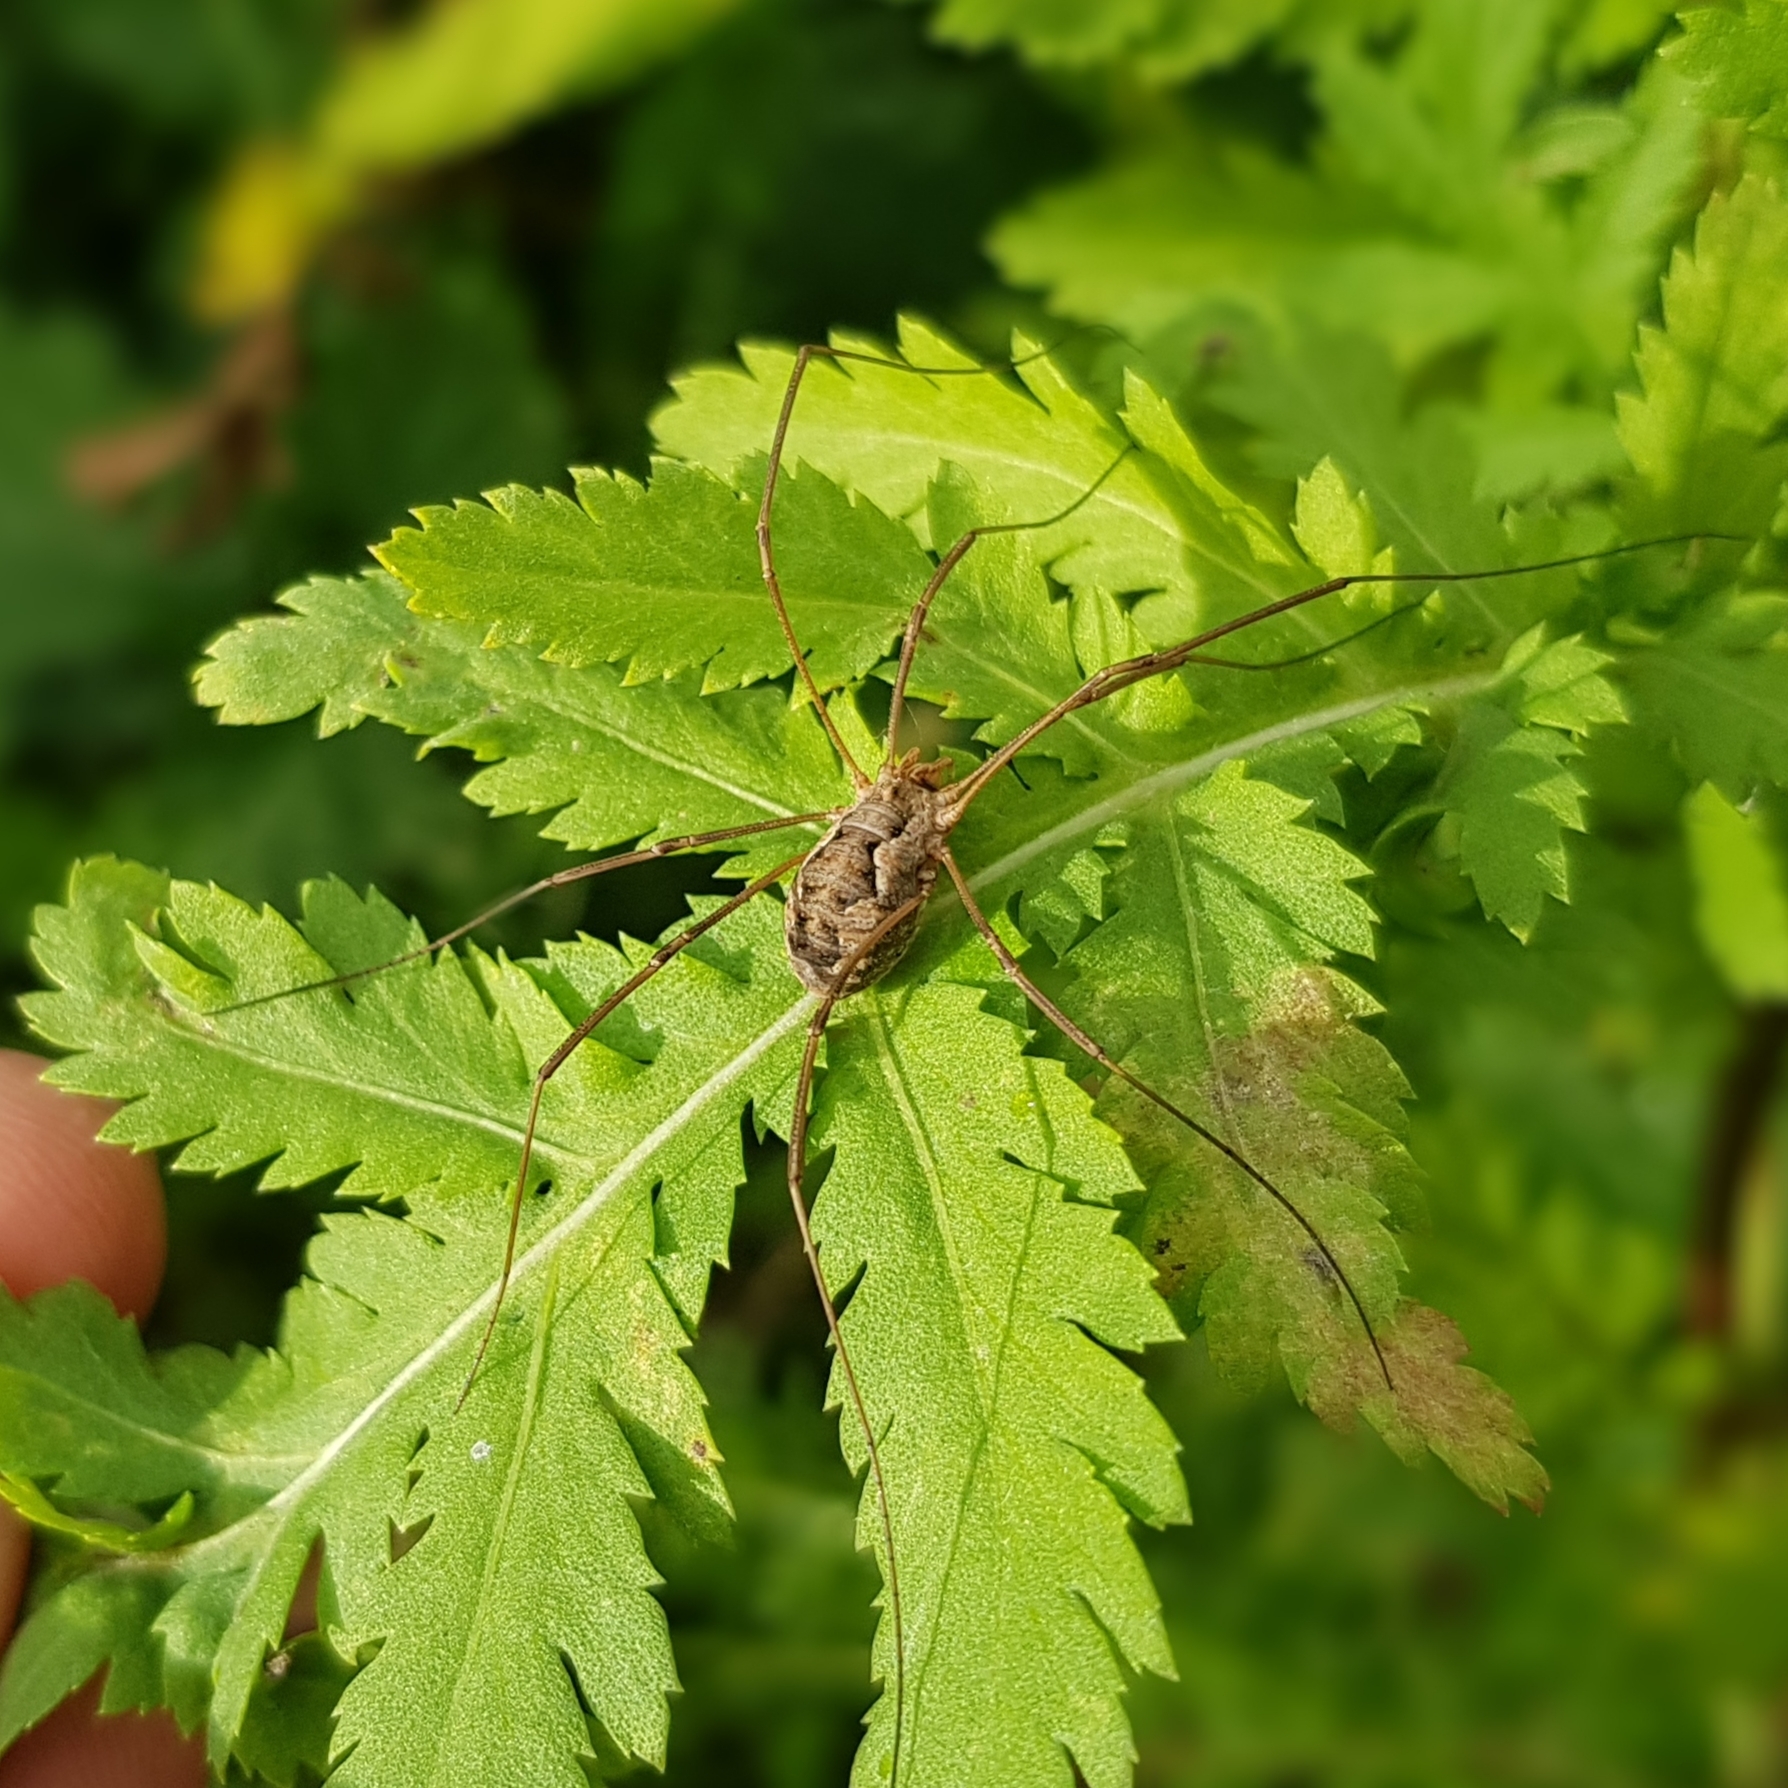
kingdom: Animalia
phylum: Arthropoda
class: Arachnida
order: Opiliones
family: Phalangiidae
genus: Phalangium
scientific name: Phalangium opilio
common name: Daddy longleg
